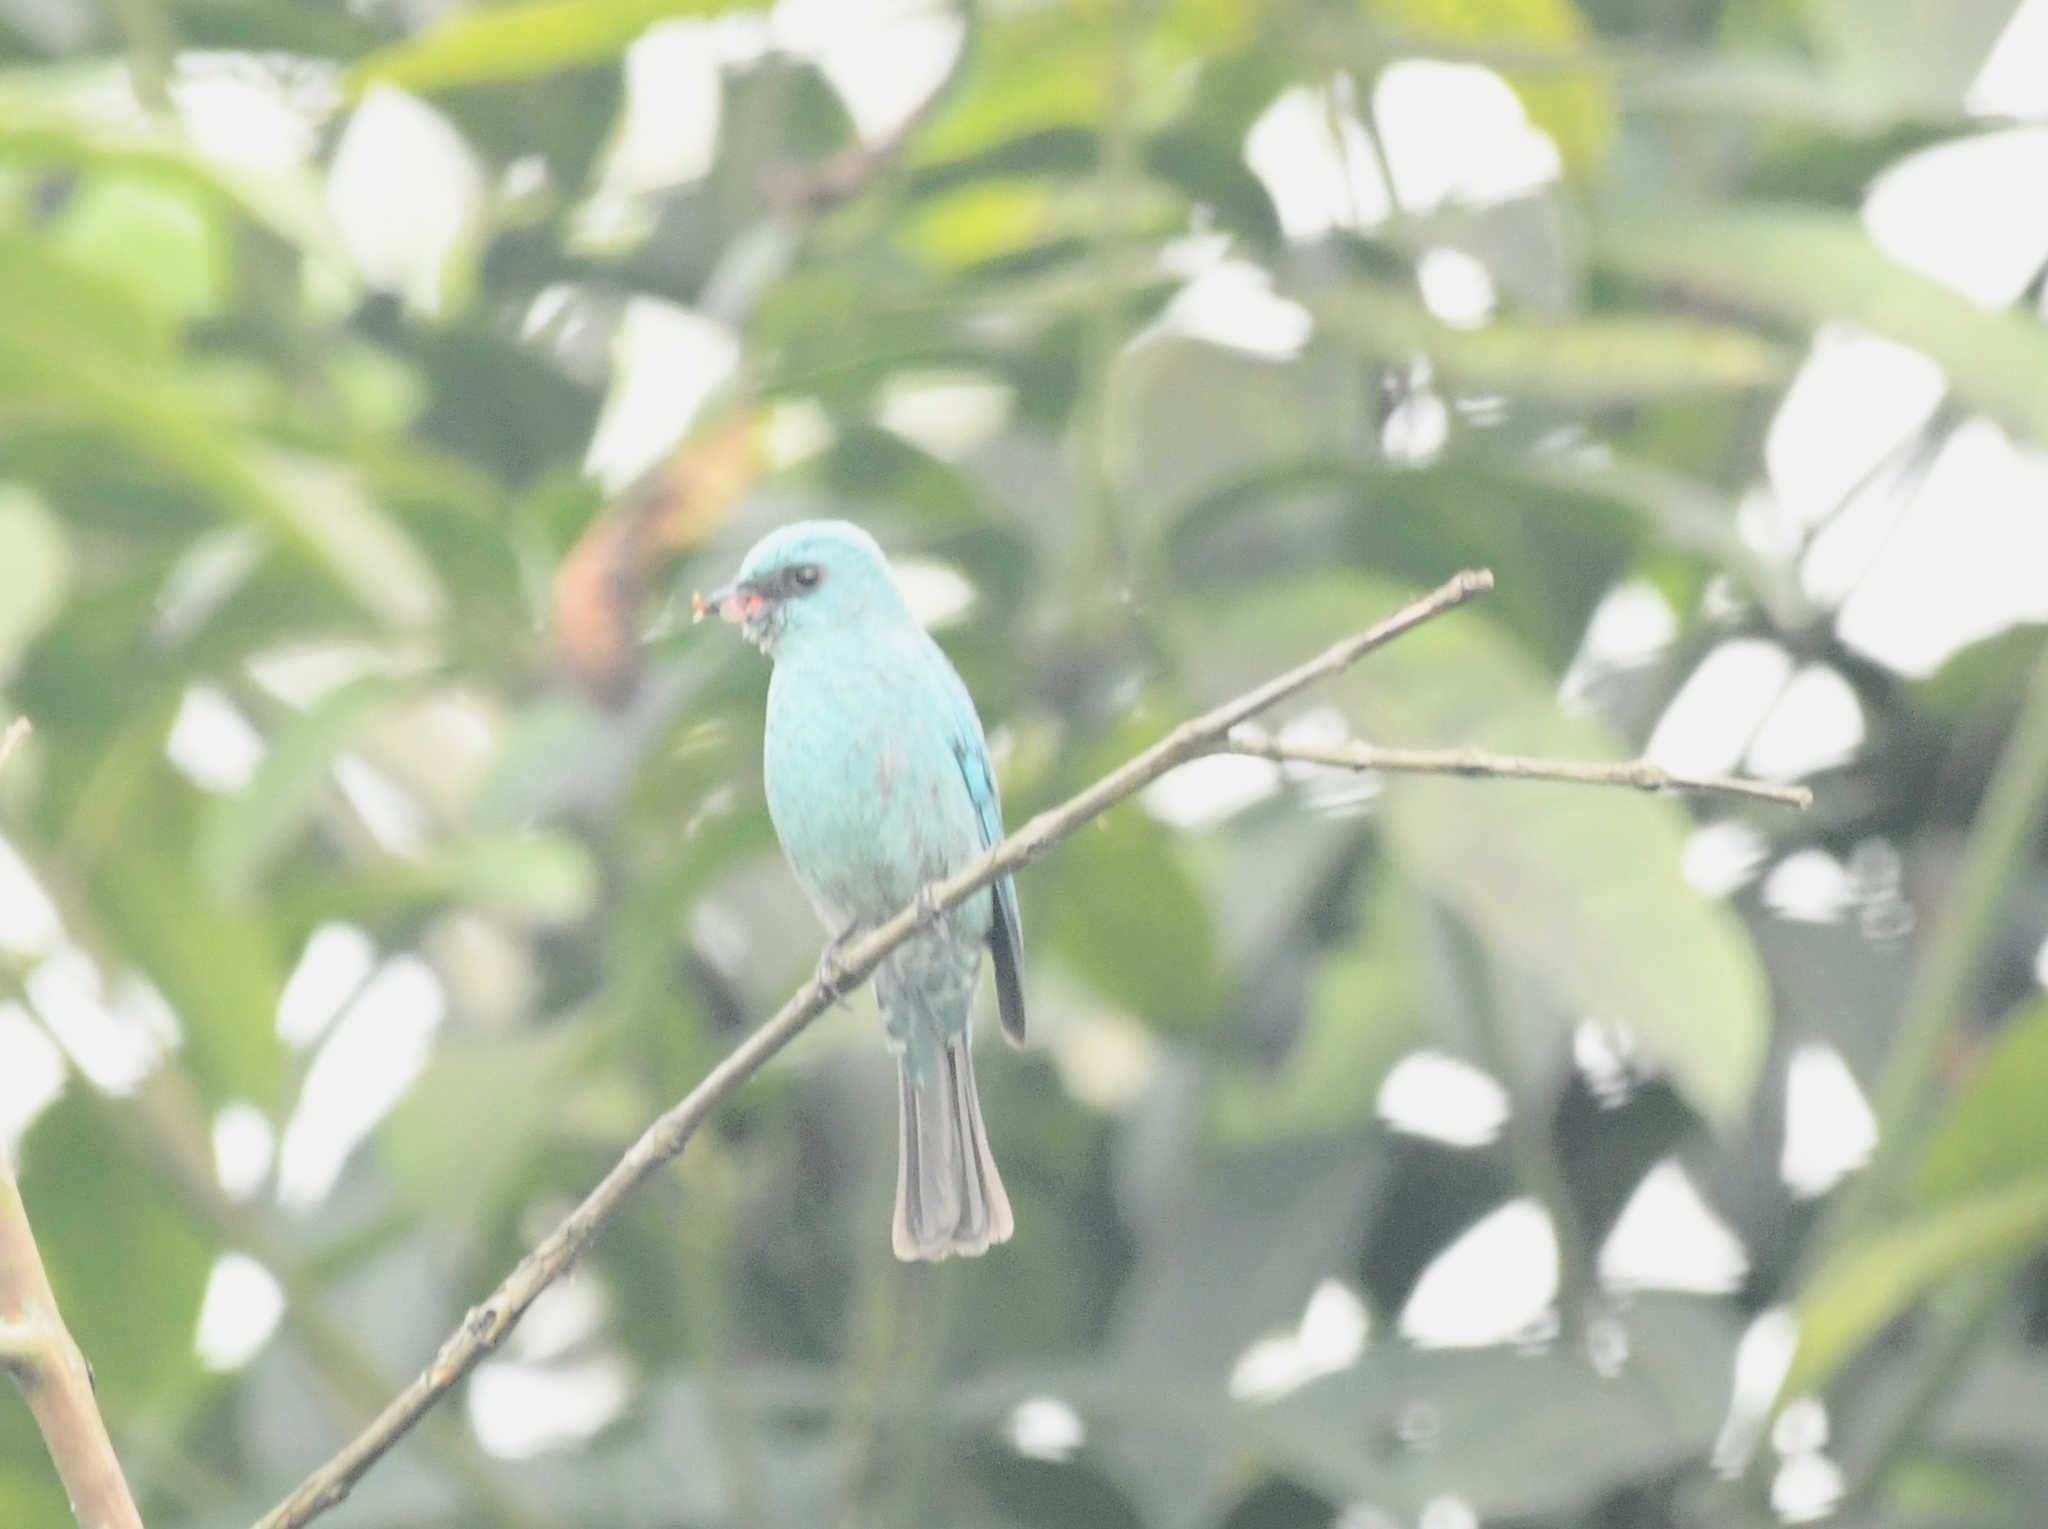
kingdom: Animalia
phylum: Chordata
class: Aves
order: Passeriformes
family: Muscicapidae
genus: Eumyias
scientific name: Eumyias thalassinus
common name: Verditer flycatcher
